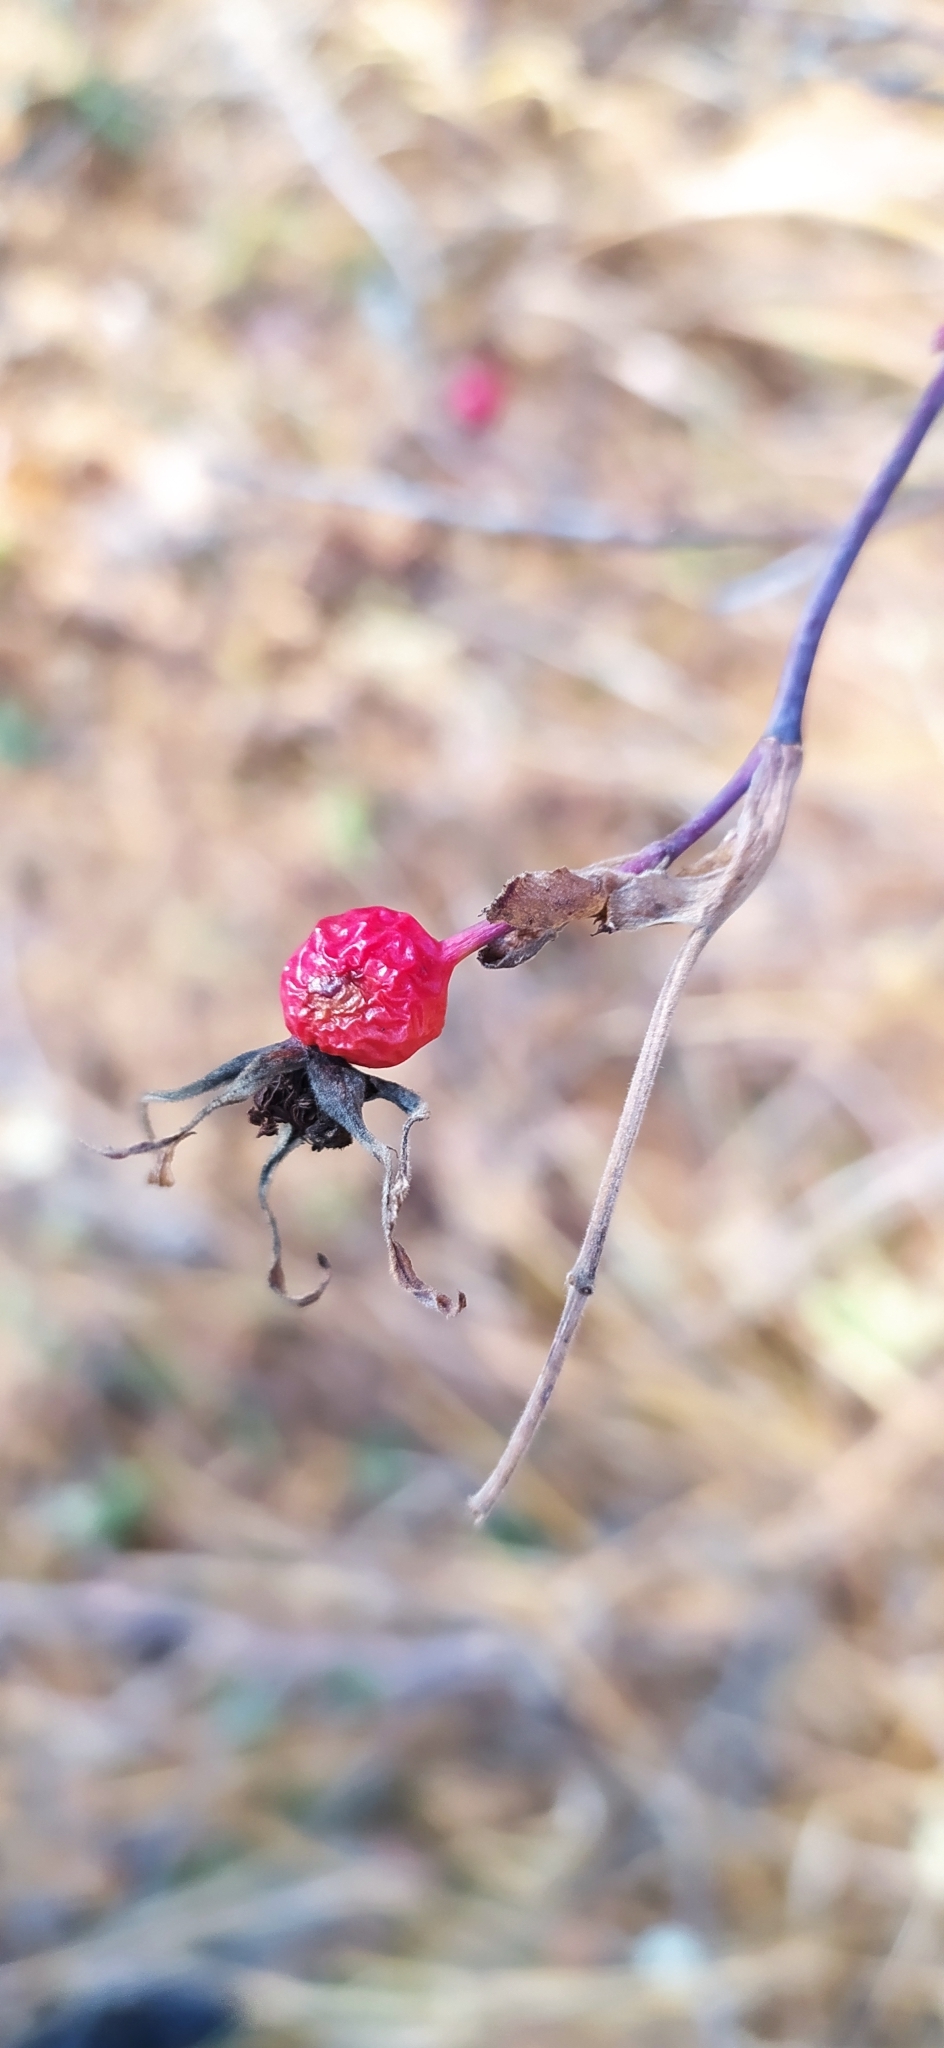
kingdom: Plantae
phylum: Tracheophyta
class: Magnoliopsida
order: Rosales
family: Rosaceae
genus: Rosa
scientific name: Rosa majalis
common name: Cinnamon rose
